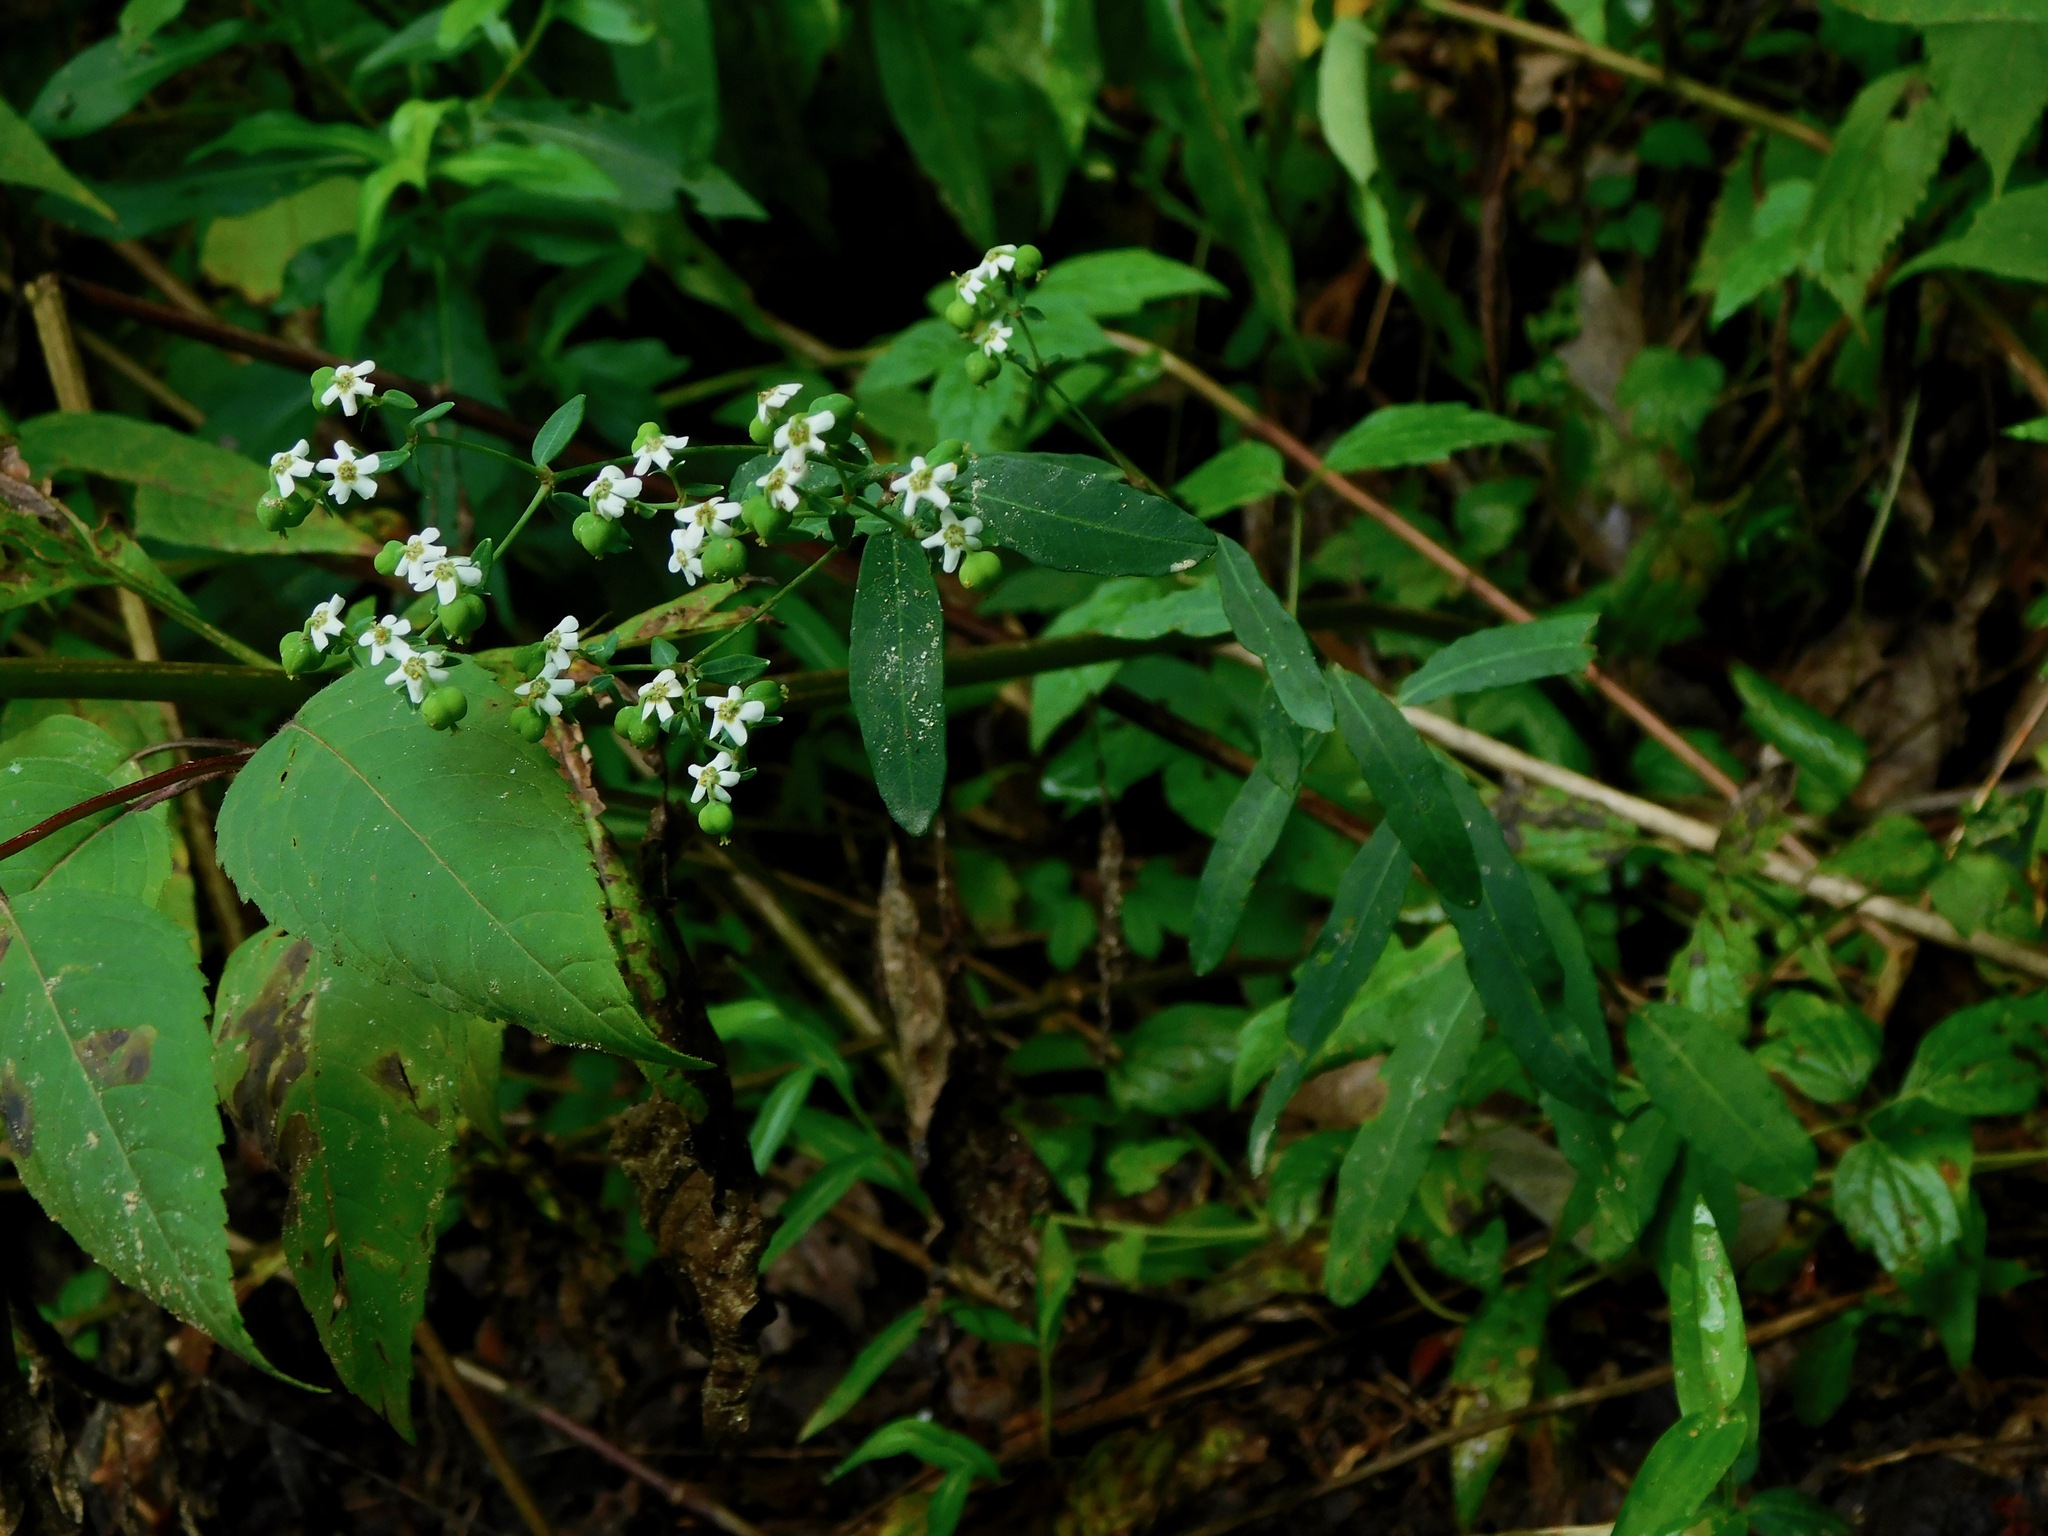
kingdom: Plantae
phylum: Tracheophyta
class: Magnoliopsida
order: Malpighiales
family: Euphorbiaceae
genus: Euphorbia
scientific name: Euphorbia corollata
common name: Flowering spurge
